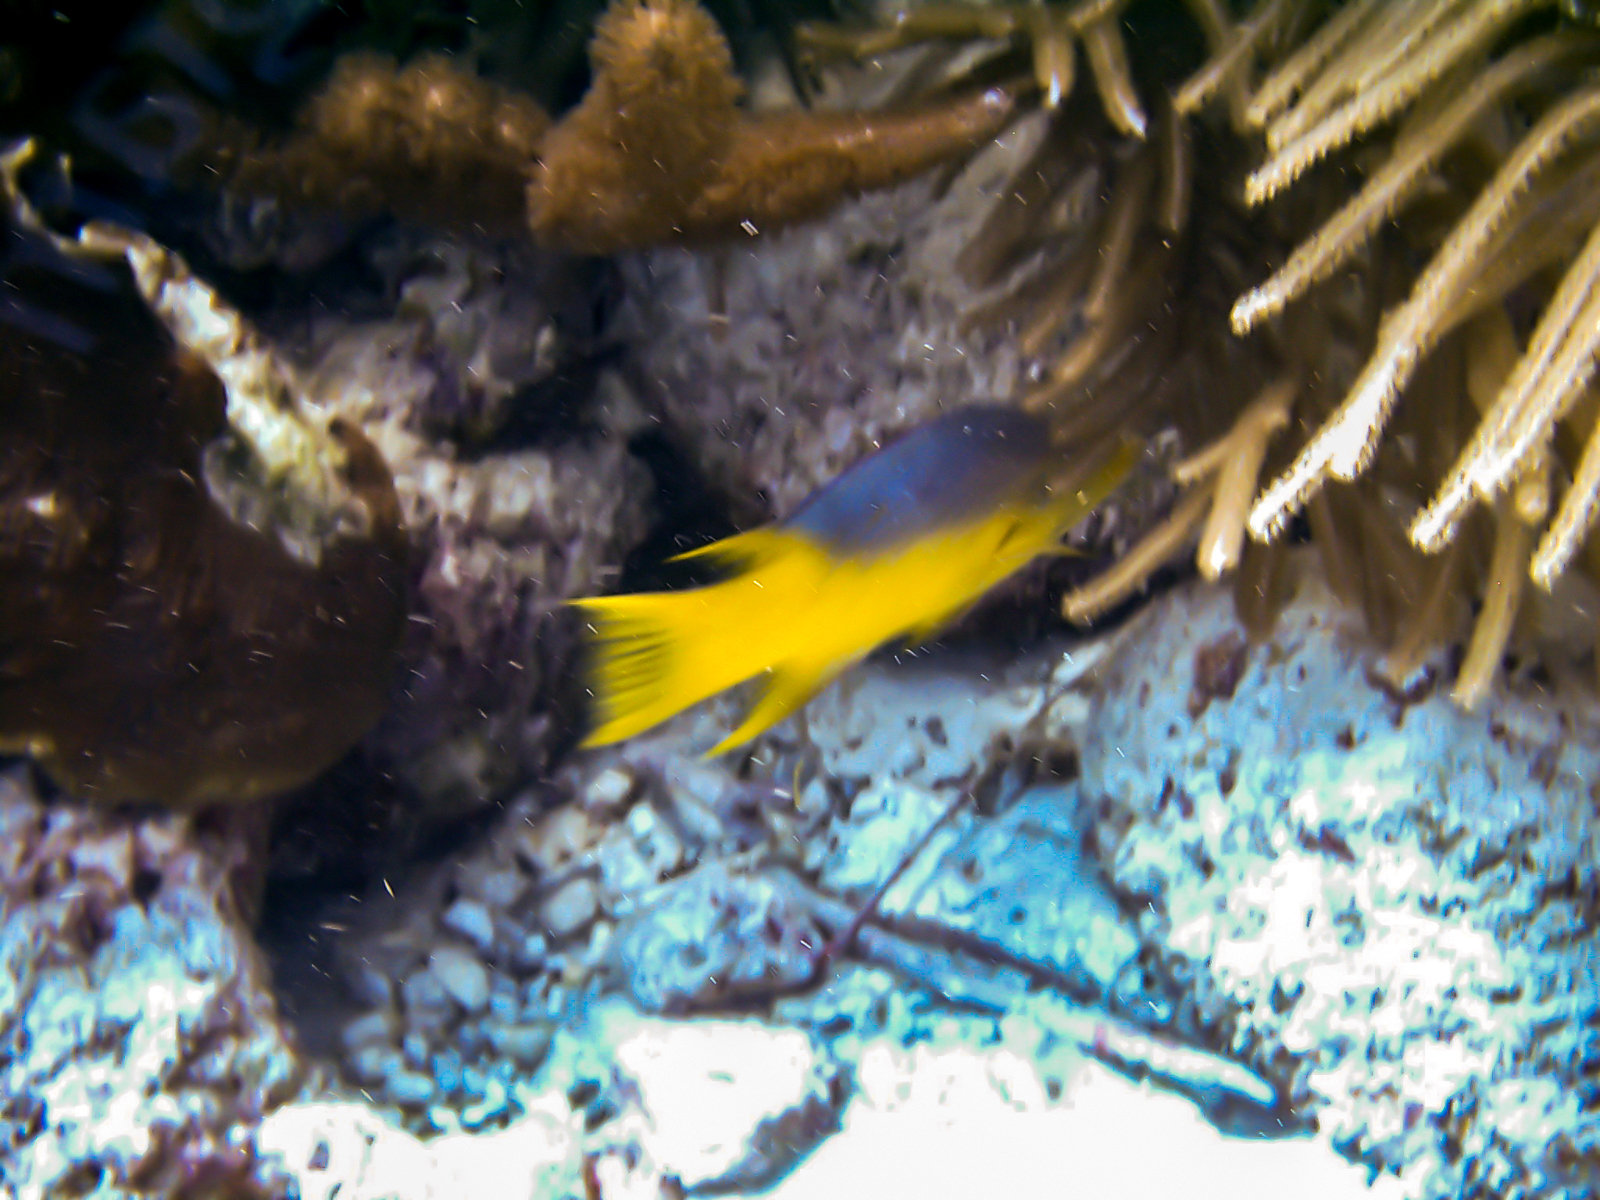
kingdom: Animalia
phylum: Chordata
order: Perciformes
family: Labridae
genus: Bodianus
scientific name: Bodianus rufus
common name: Spanish hogfish
